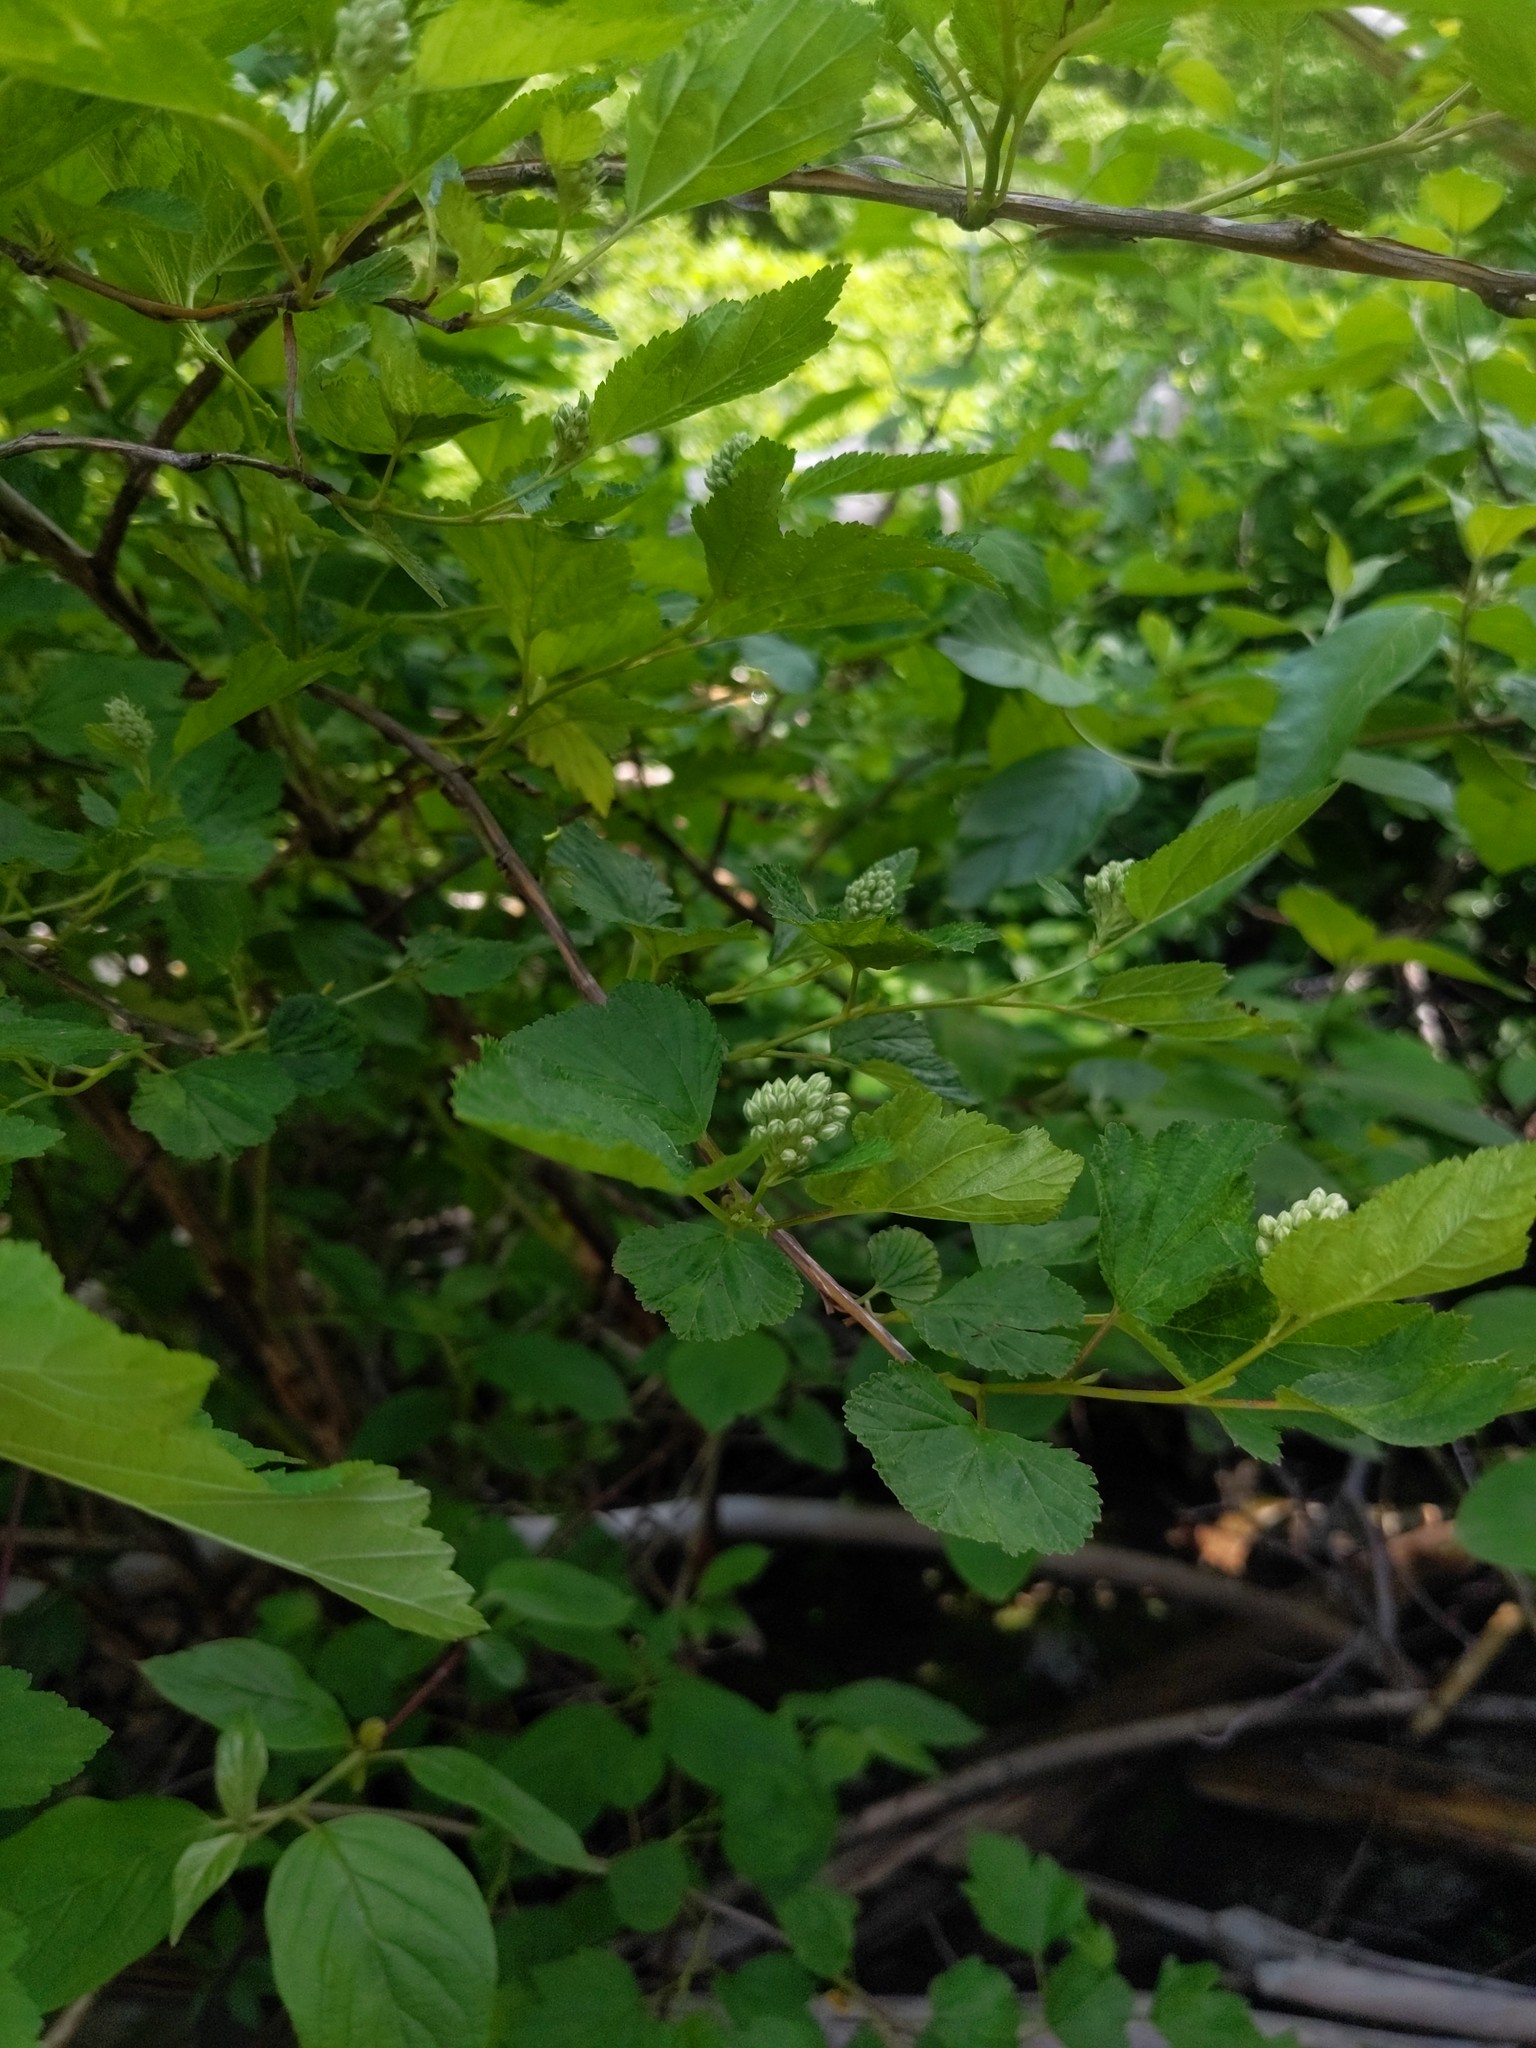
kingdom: Plantae
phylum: Tracheophyta
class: Magnoliopsida
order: Rosales
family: Rosaceae
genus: Physocarpus
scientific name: Physocarpus opulifolius
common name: Ninebark
